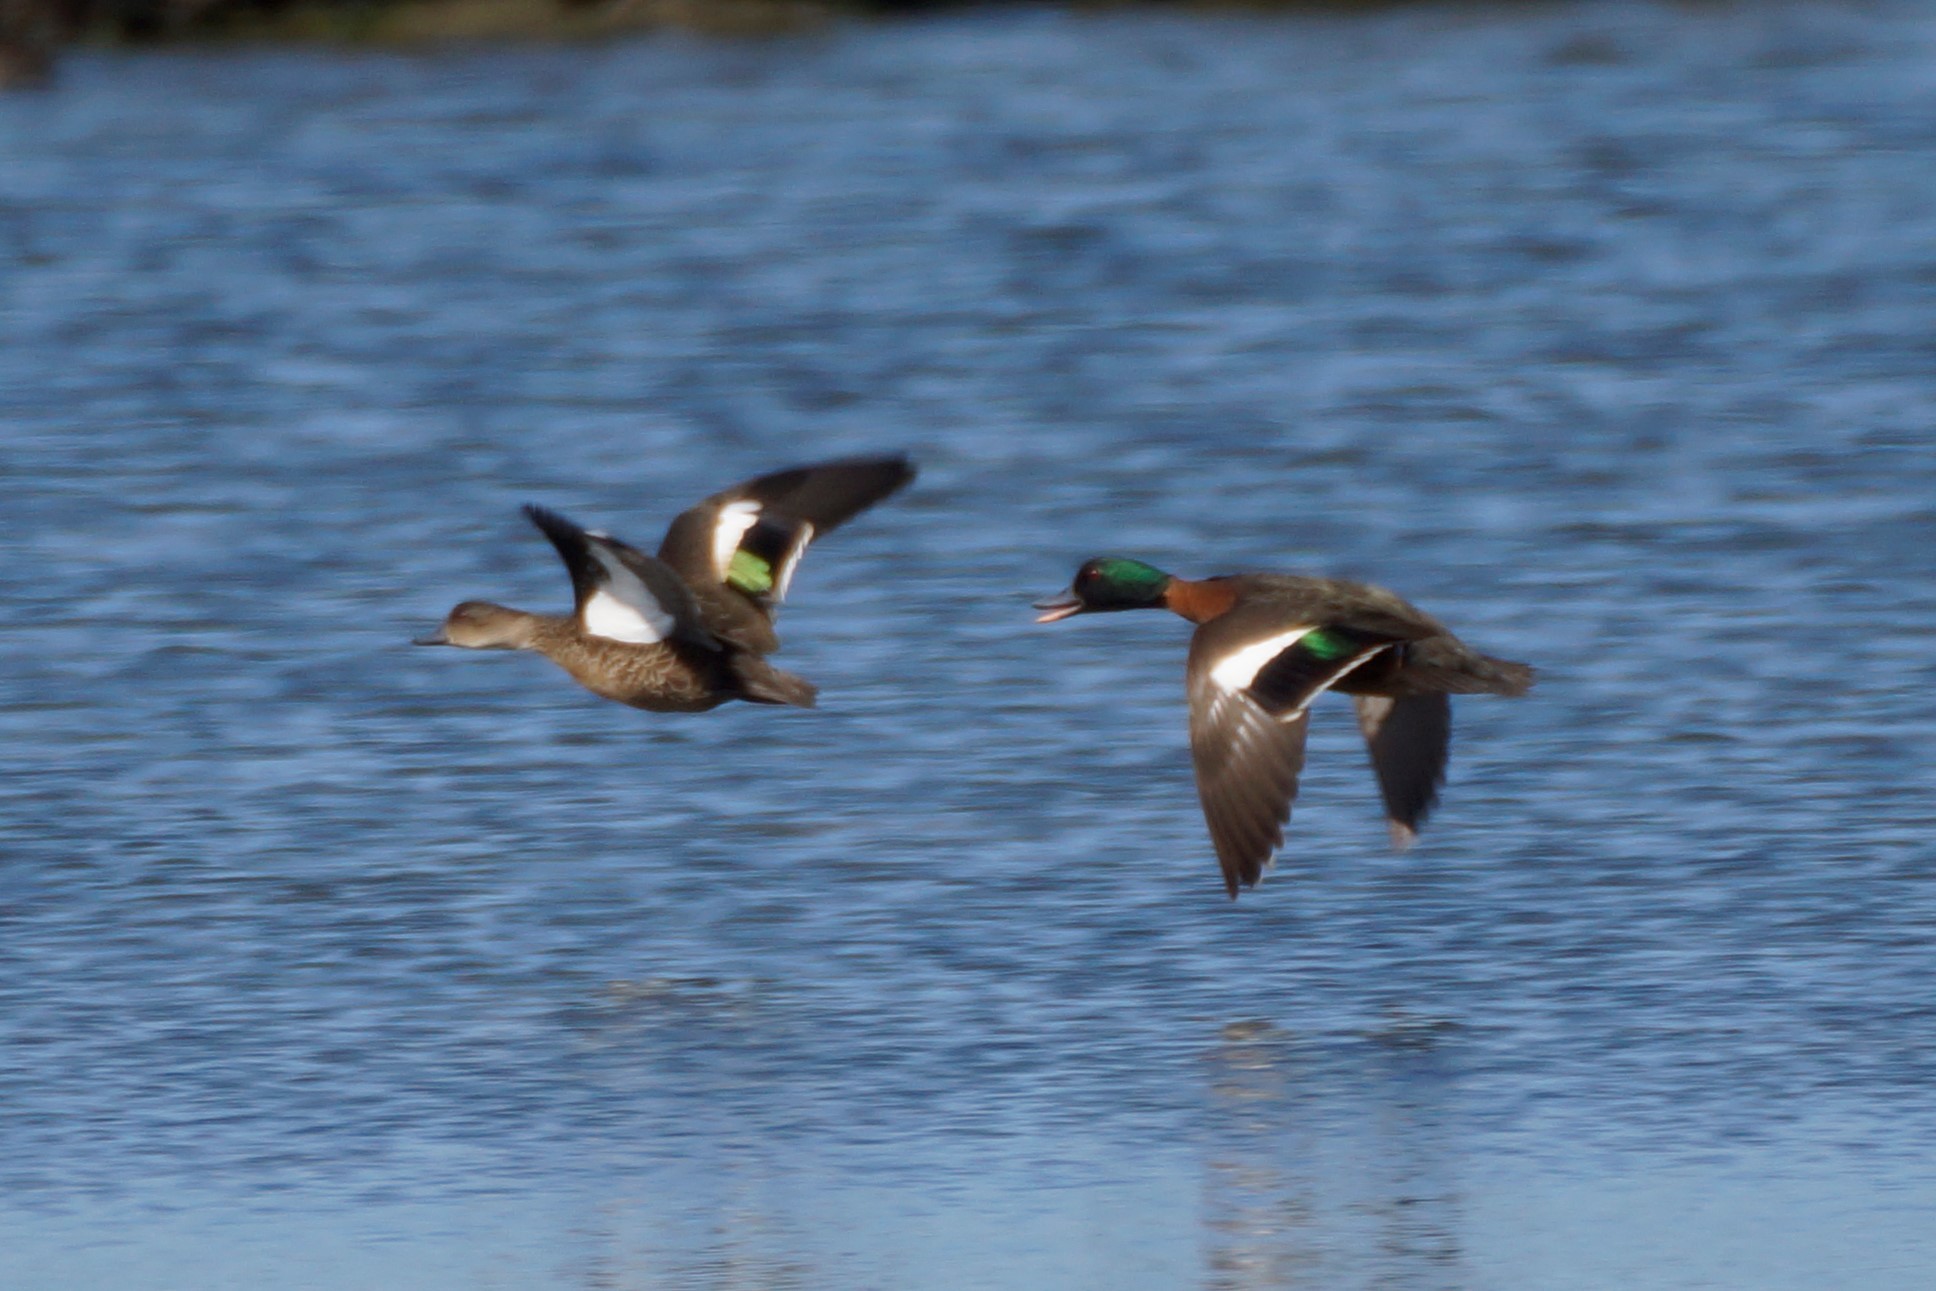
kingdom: Animalia
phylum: Chordata
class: Aves
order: Anseriformes
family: Anatidae
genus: Anas
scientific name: Anas castanea
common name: Chestnut teal
